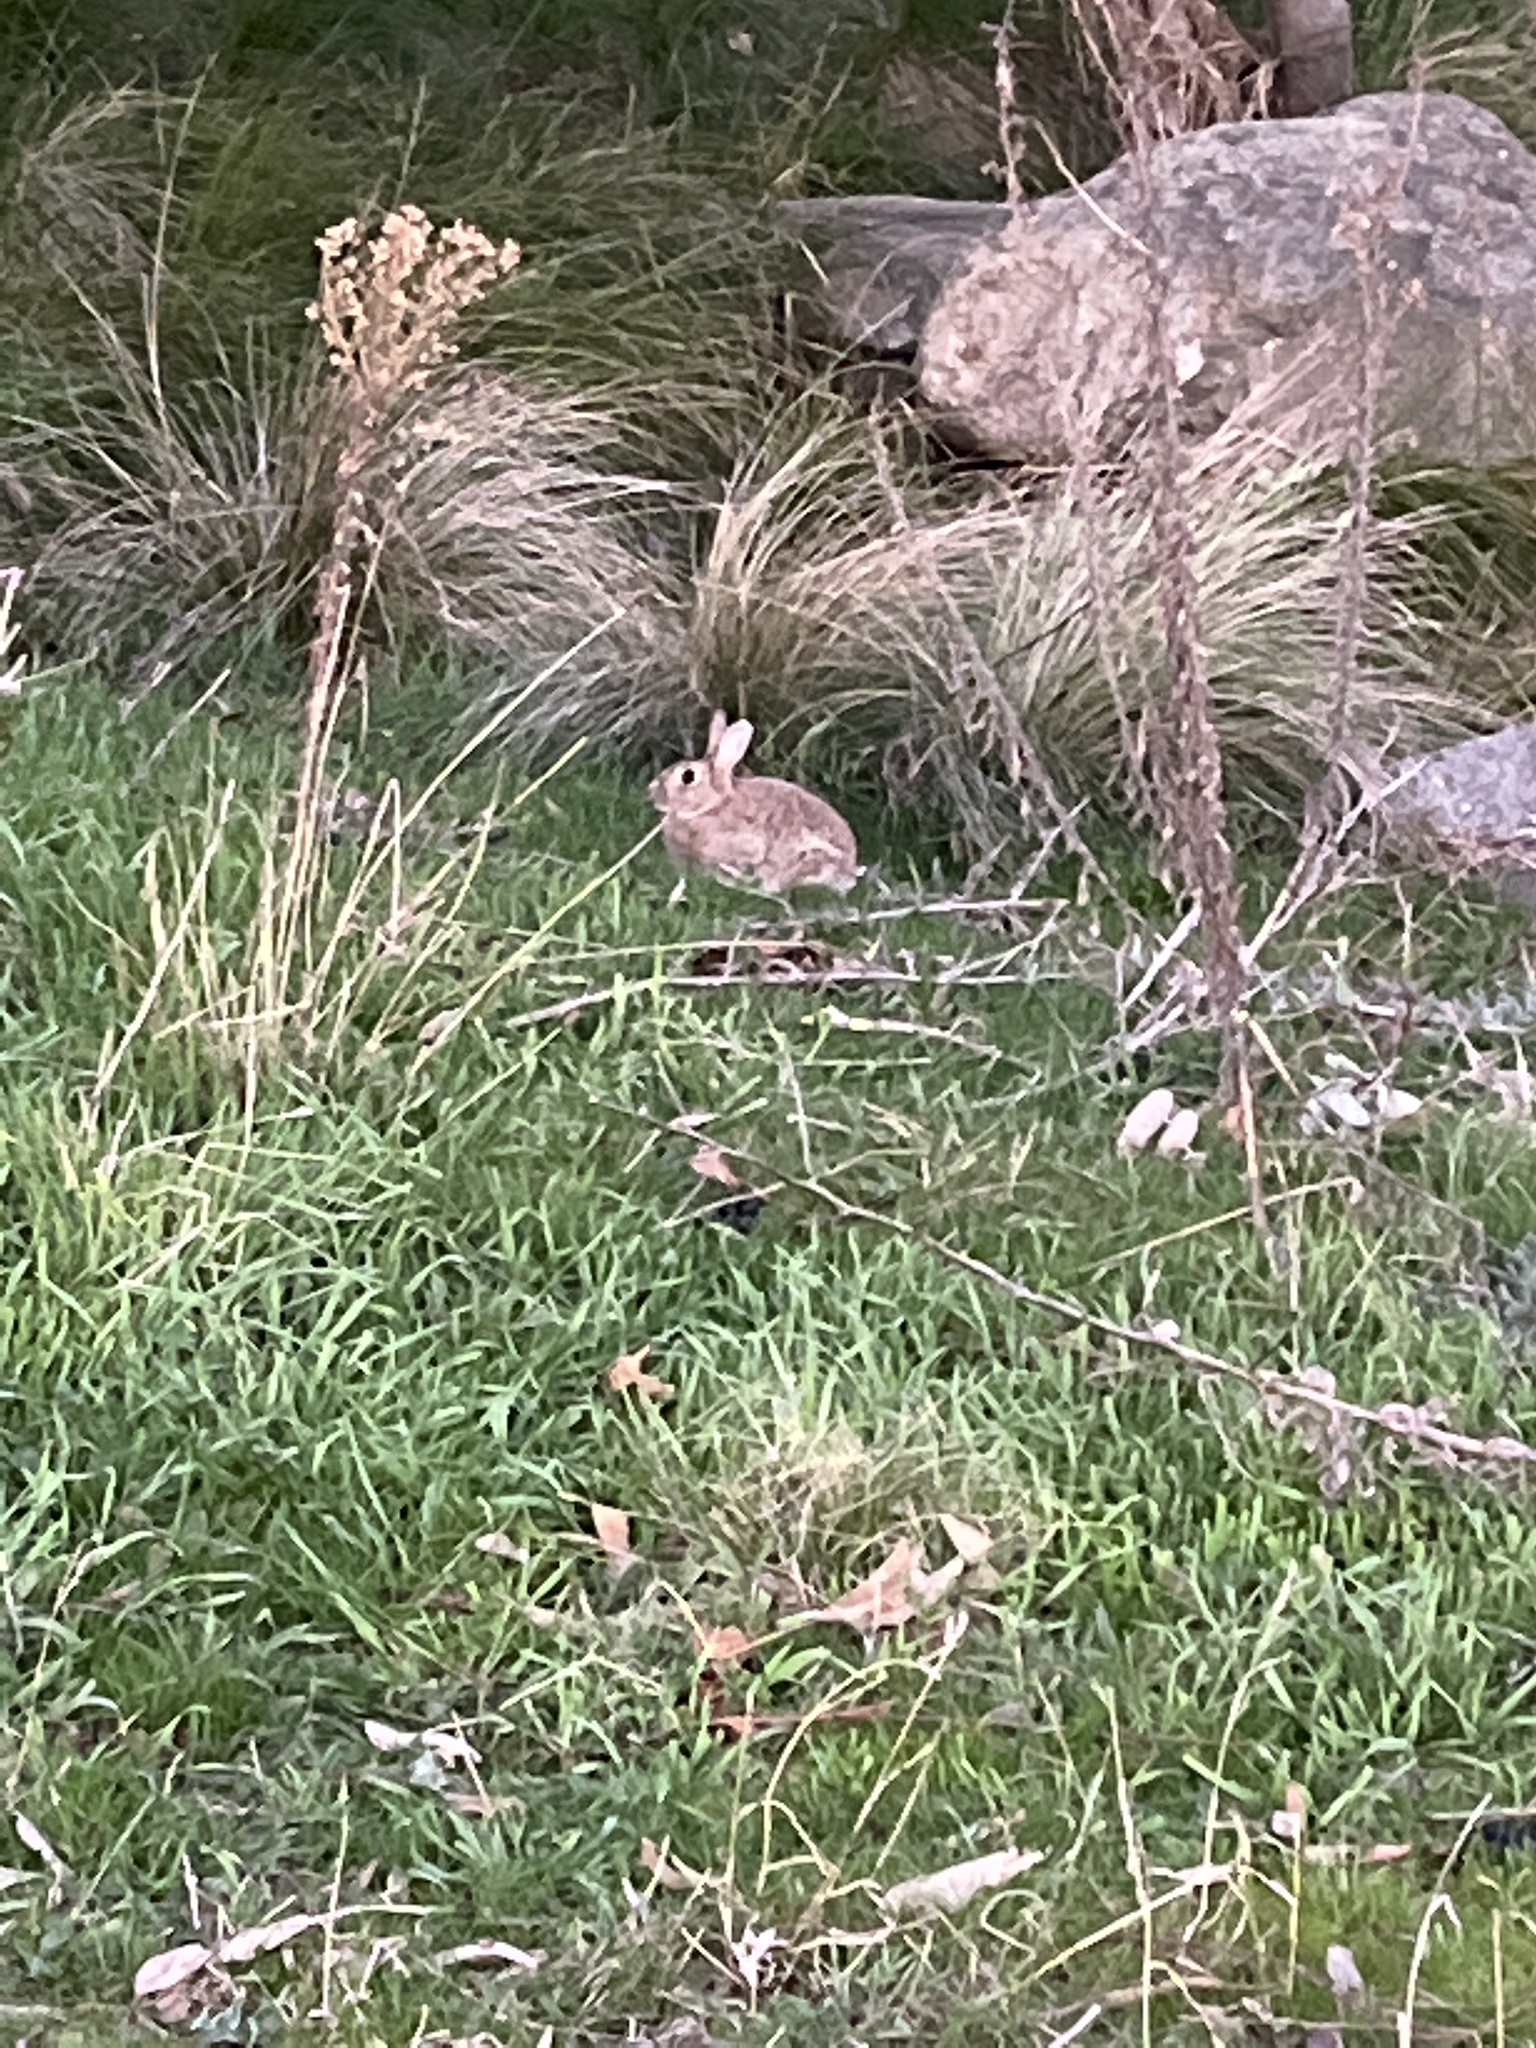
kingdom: Animalia
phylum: Chordata
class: Mammalia
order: Lagomorpha
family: Leporidae
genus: Oryctolagus
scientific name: Oryctolagus cuniculus
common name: European rabbit
